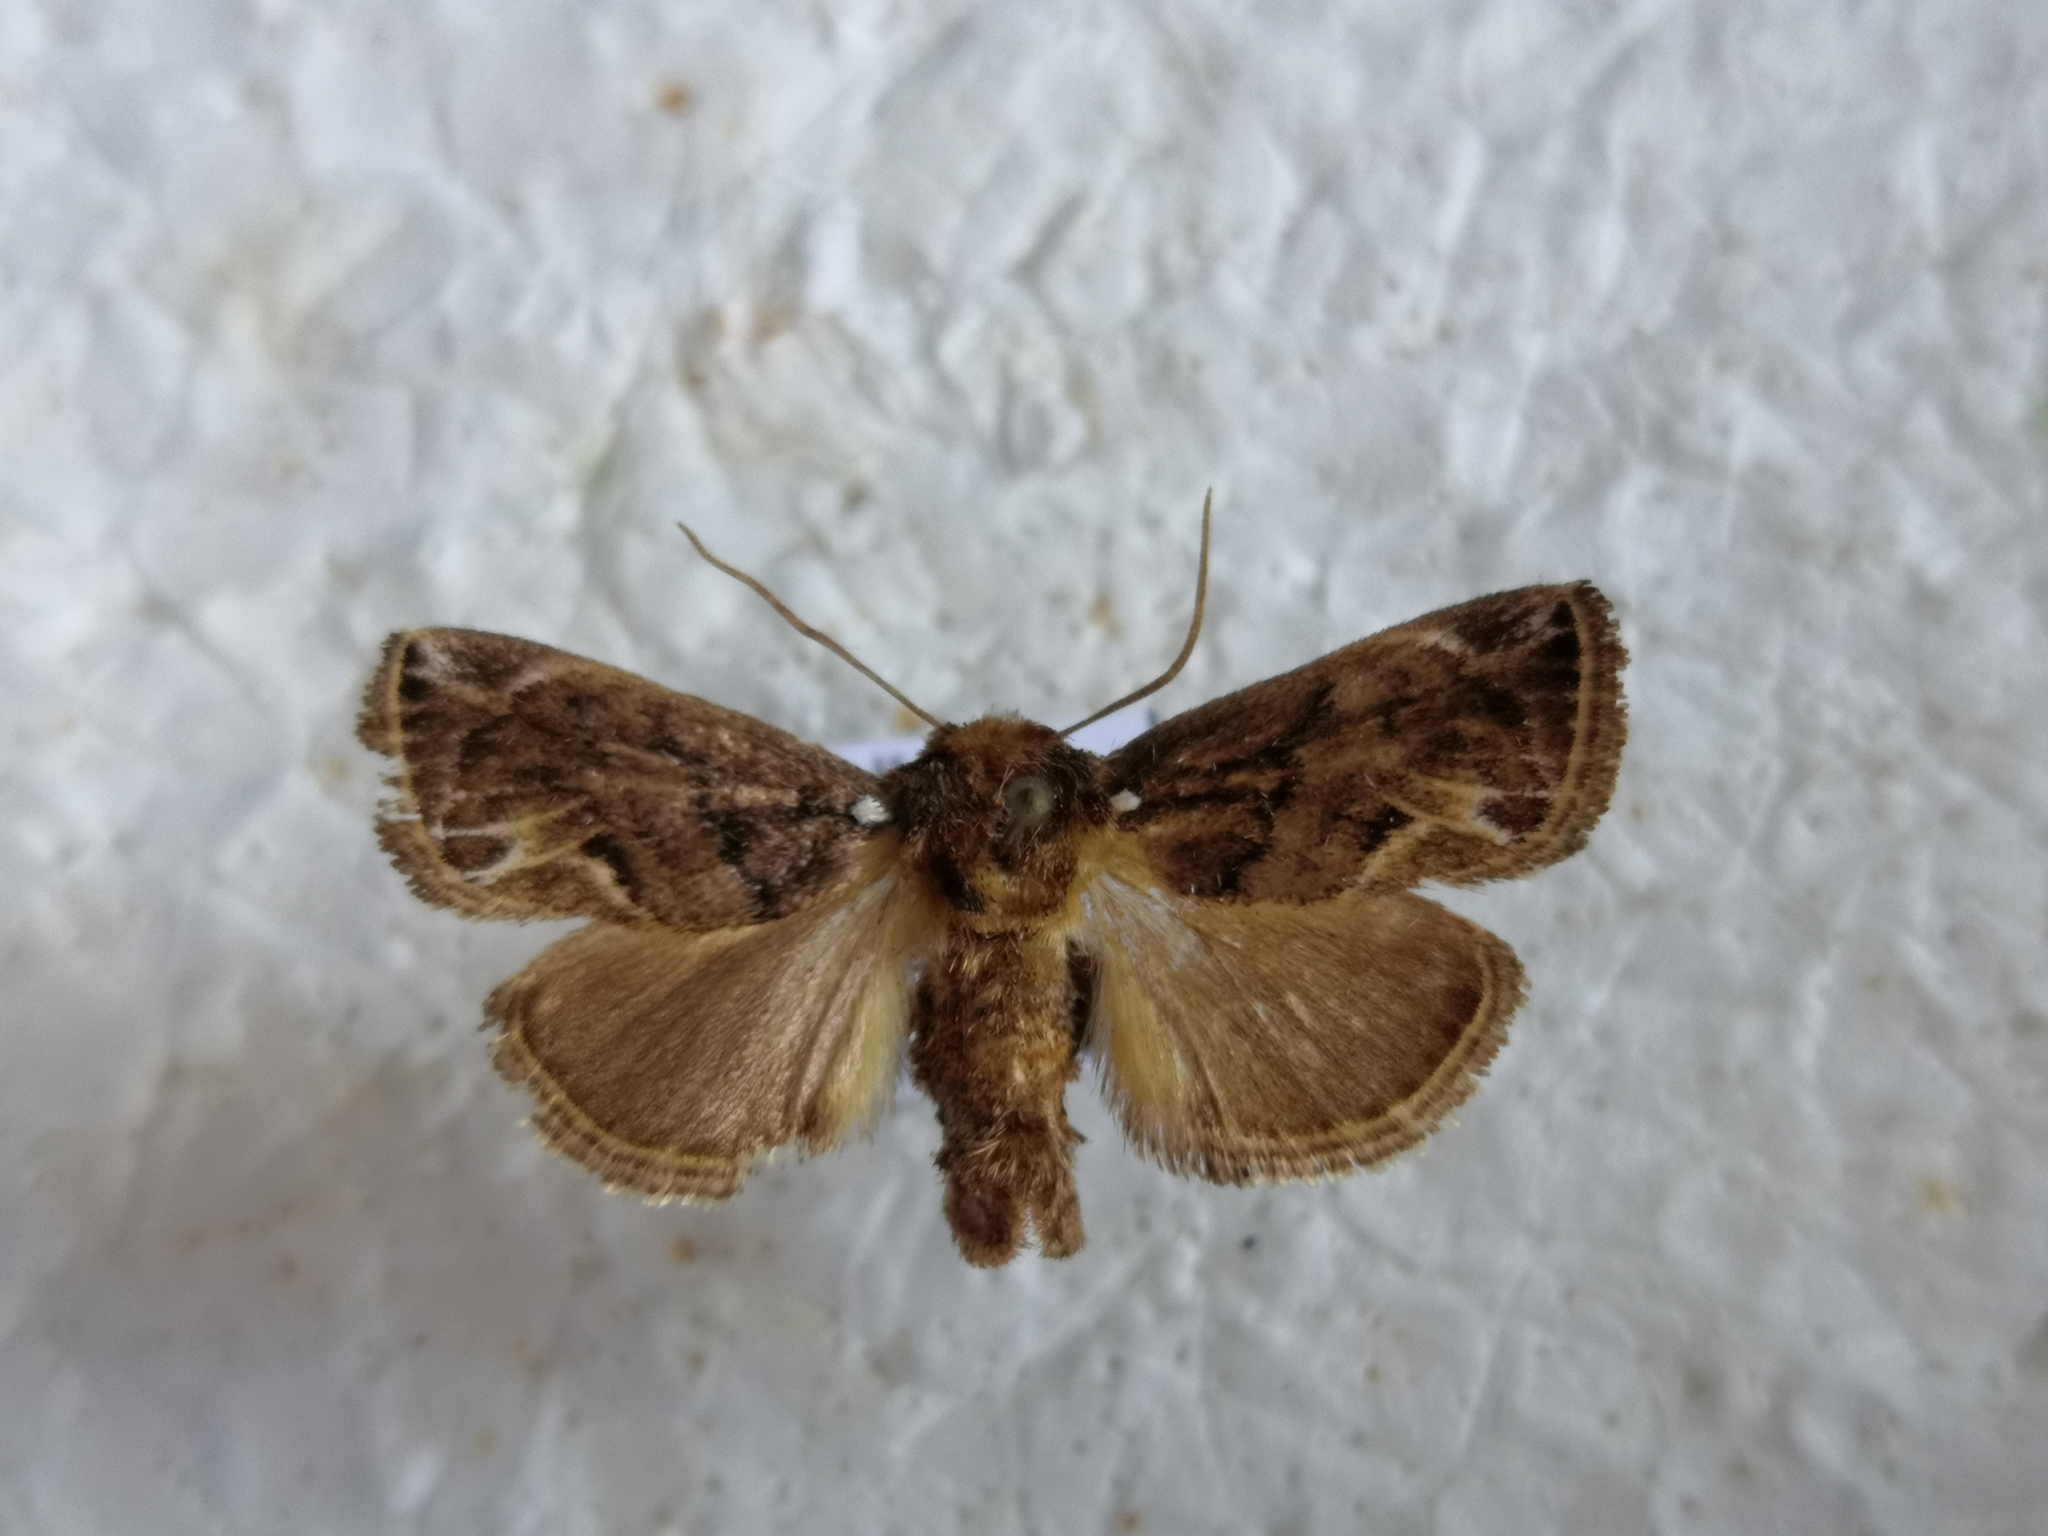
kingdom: Animalia
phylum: Arthropoda
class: Insecta
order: Lepidoptera
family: Limacodidae
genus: Austrapoda
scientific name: Austrapoda dentatus
